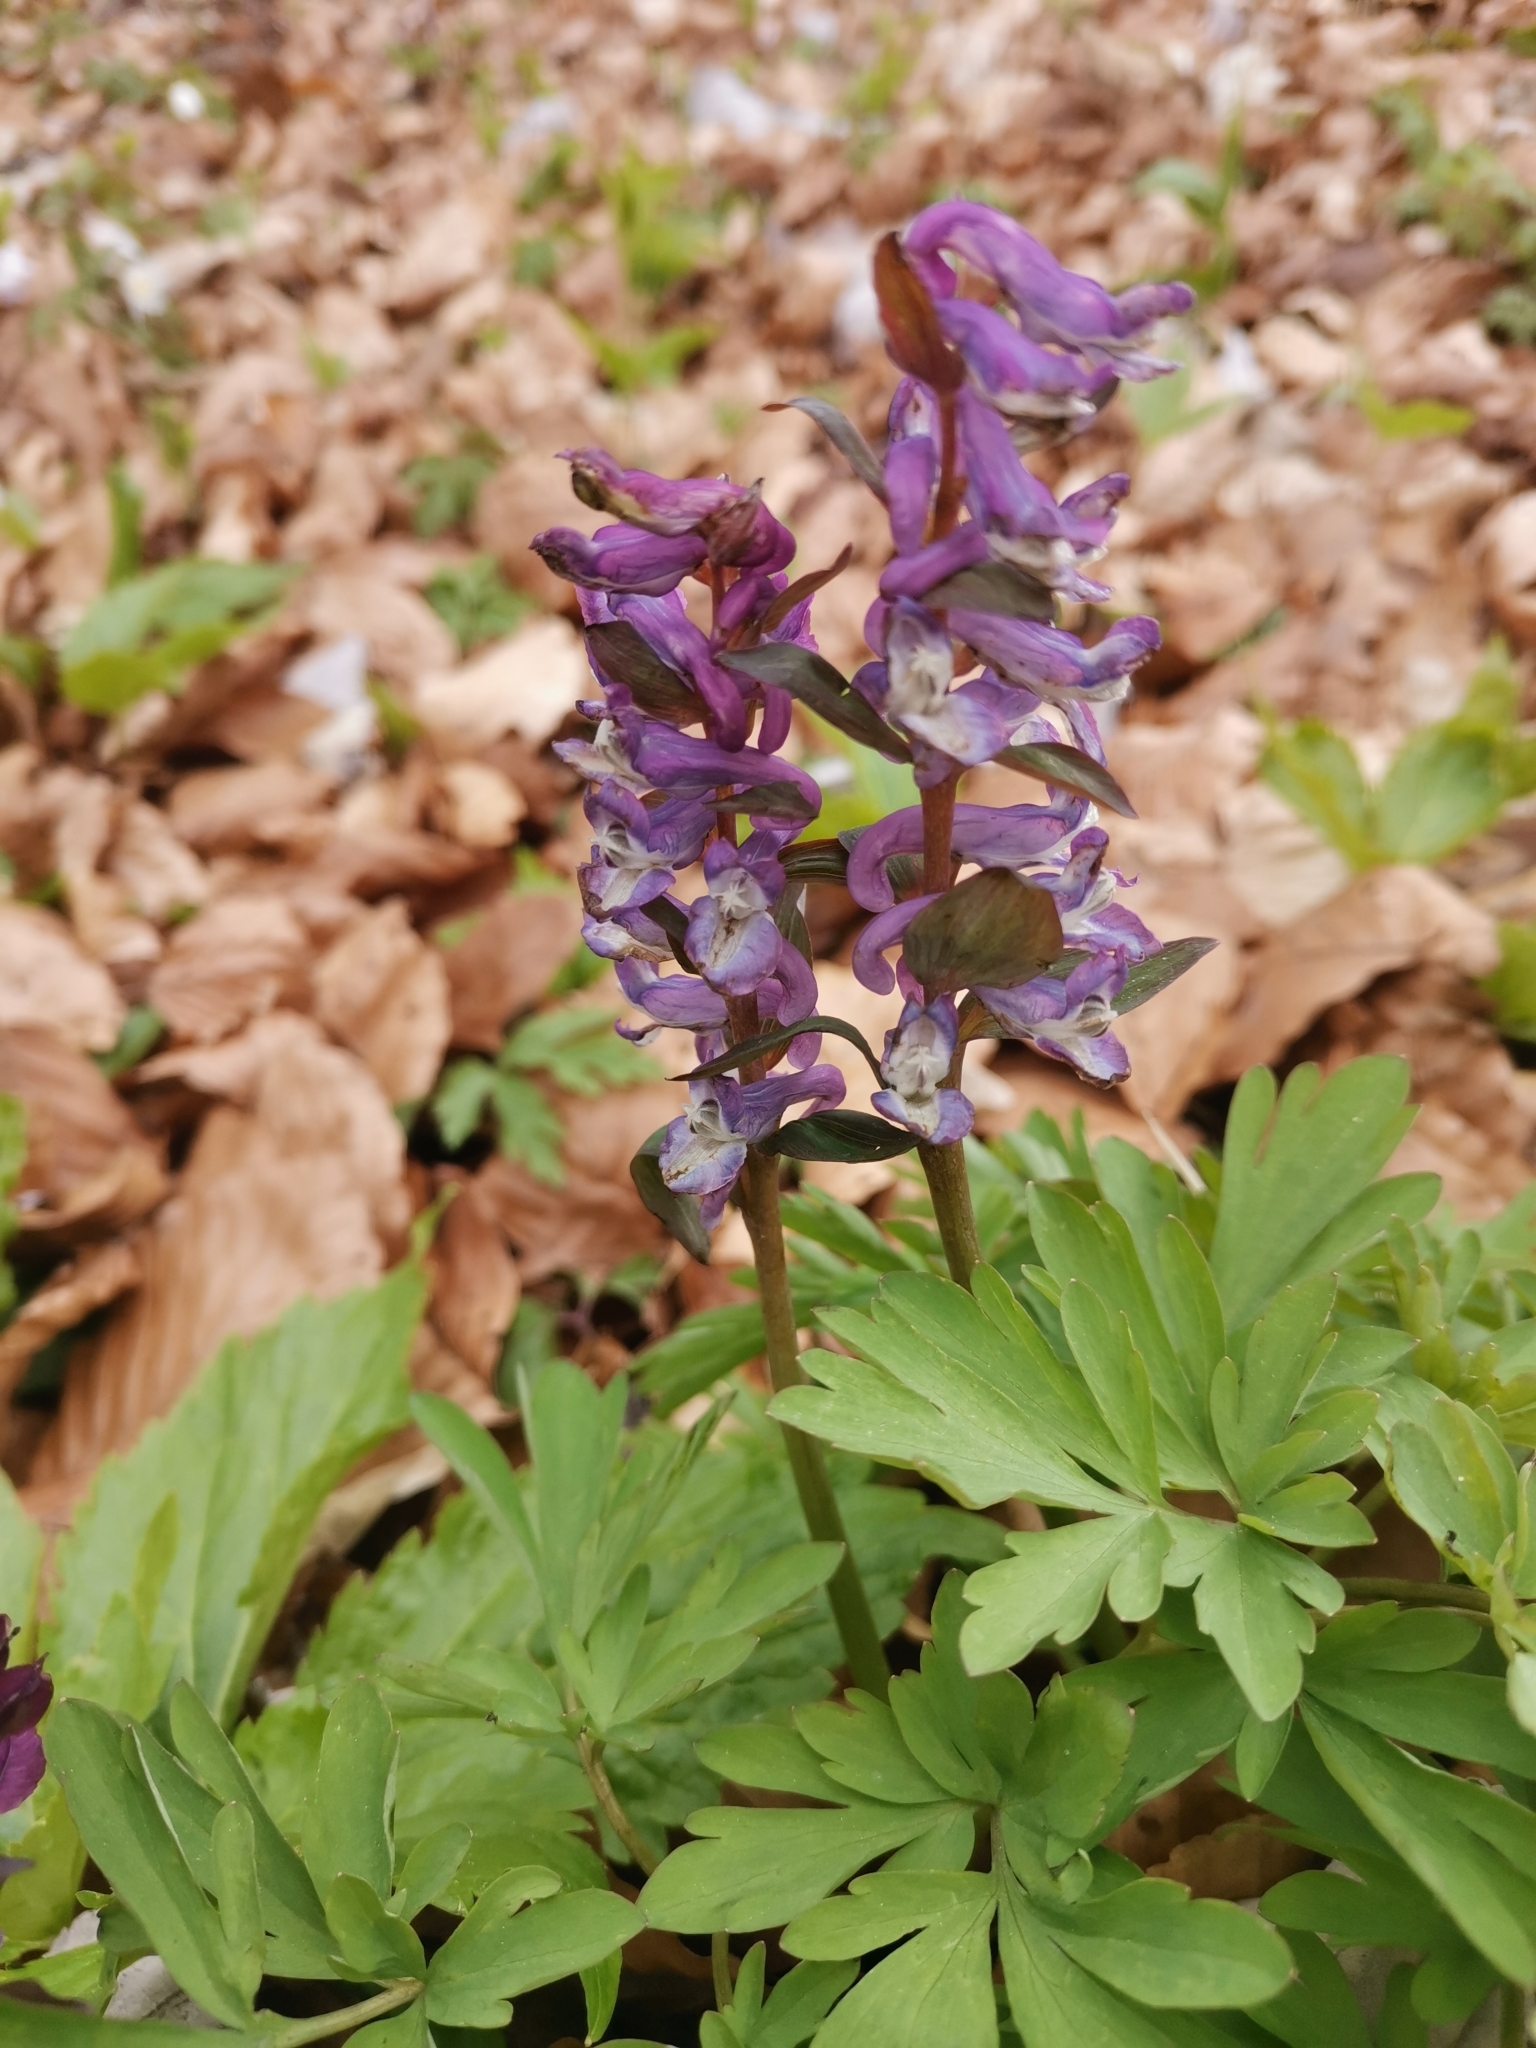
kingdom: Plantae
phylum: Tracheophyta
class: Magnoliopsida
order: Ranunculales
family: Papaveraceae
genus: Corydalis
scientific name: Corydalis cava
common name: Hollowroot
